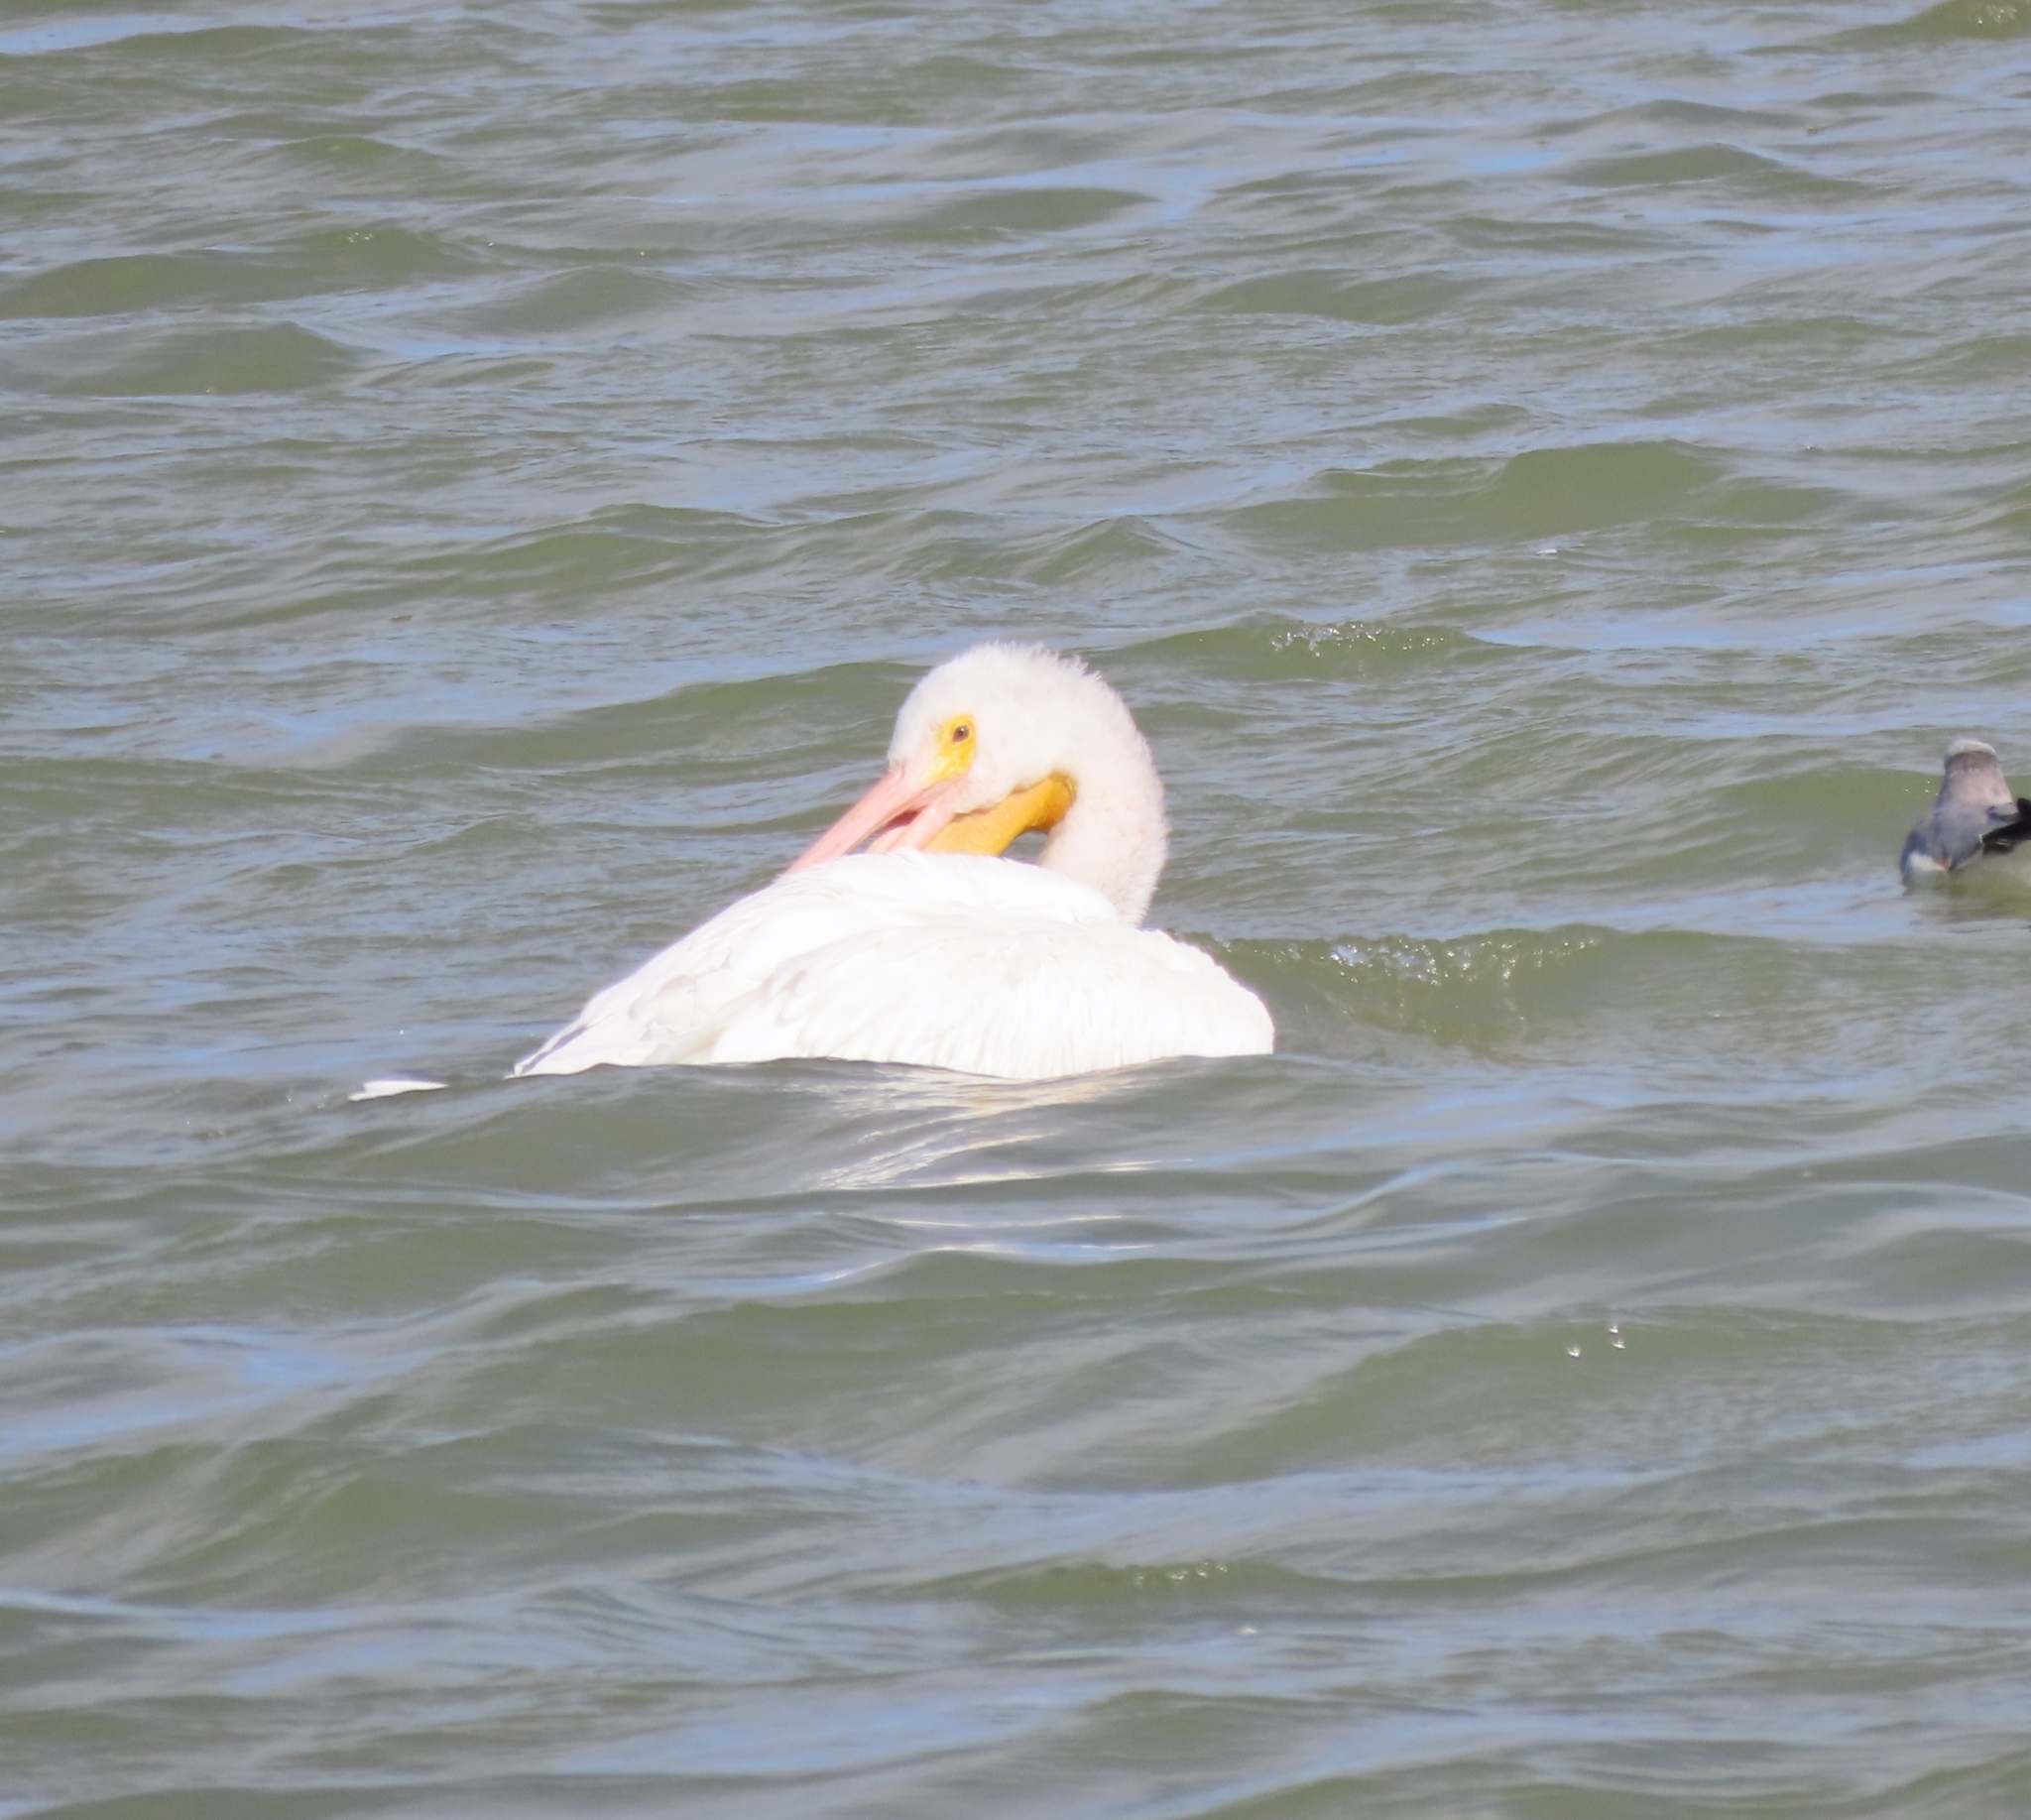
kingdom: Animalia
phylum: Chordata
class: Aves
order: Pelecaniformes
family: Pelecanidae
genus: Pelecanus
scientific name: Pelecanus erythrorhynchos
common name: American white pelican
